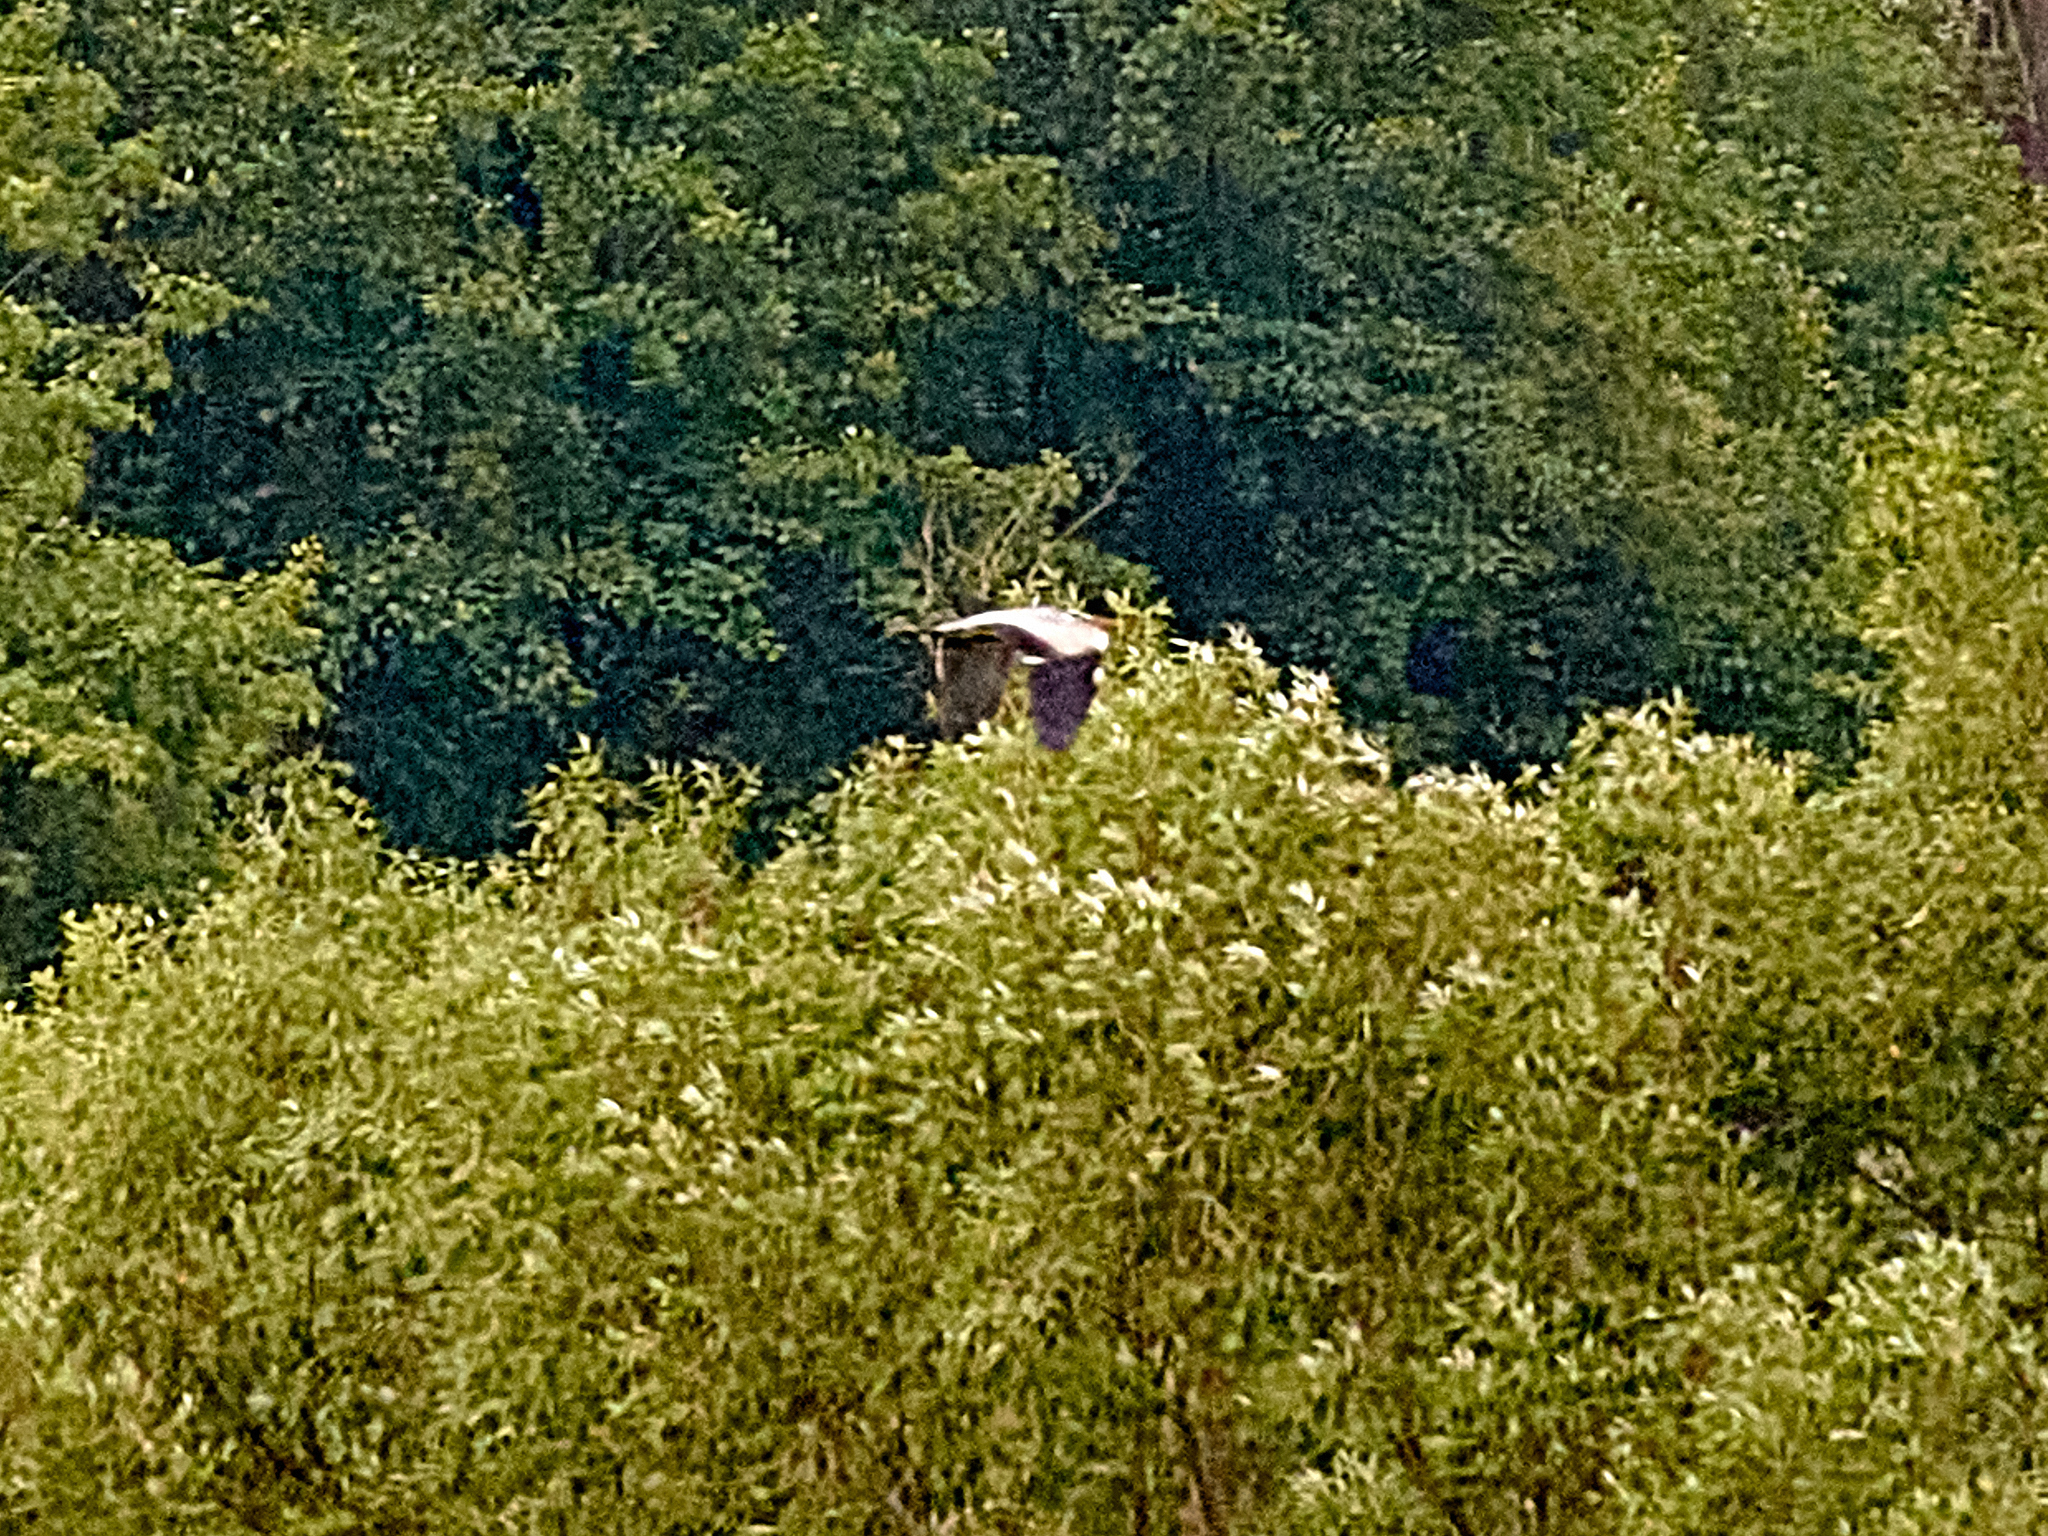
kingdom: Animalia
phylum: Chordata
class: Aves
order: Pelecaniformes
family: Ardeidae
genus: Ardea
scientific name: Ardea cinerea
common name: Grey heron
